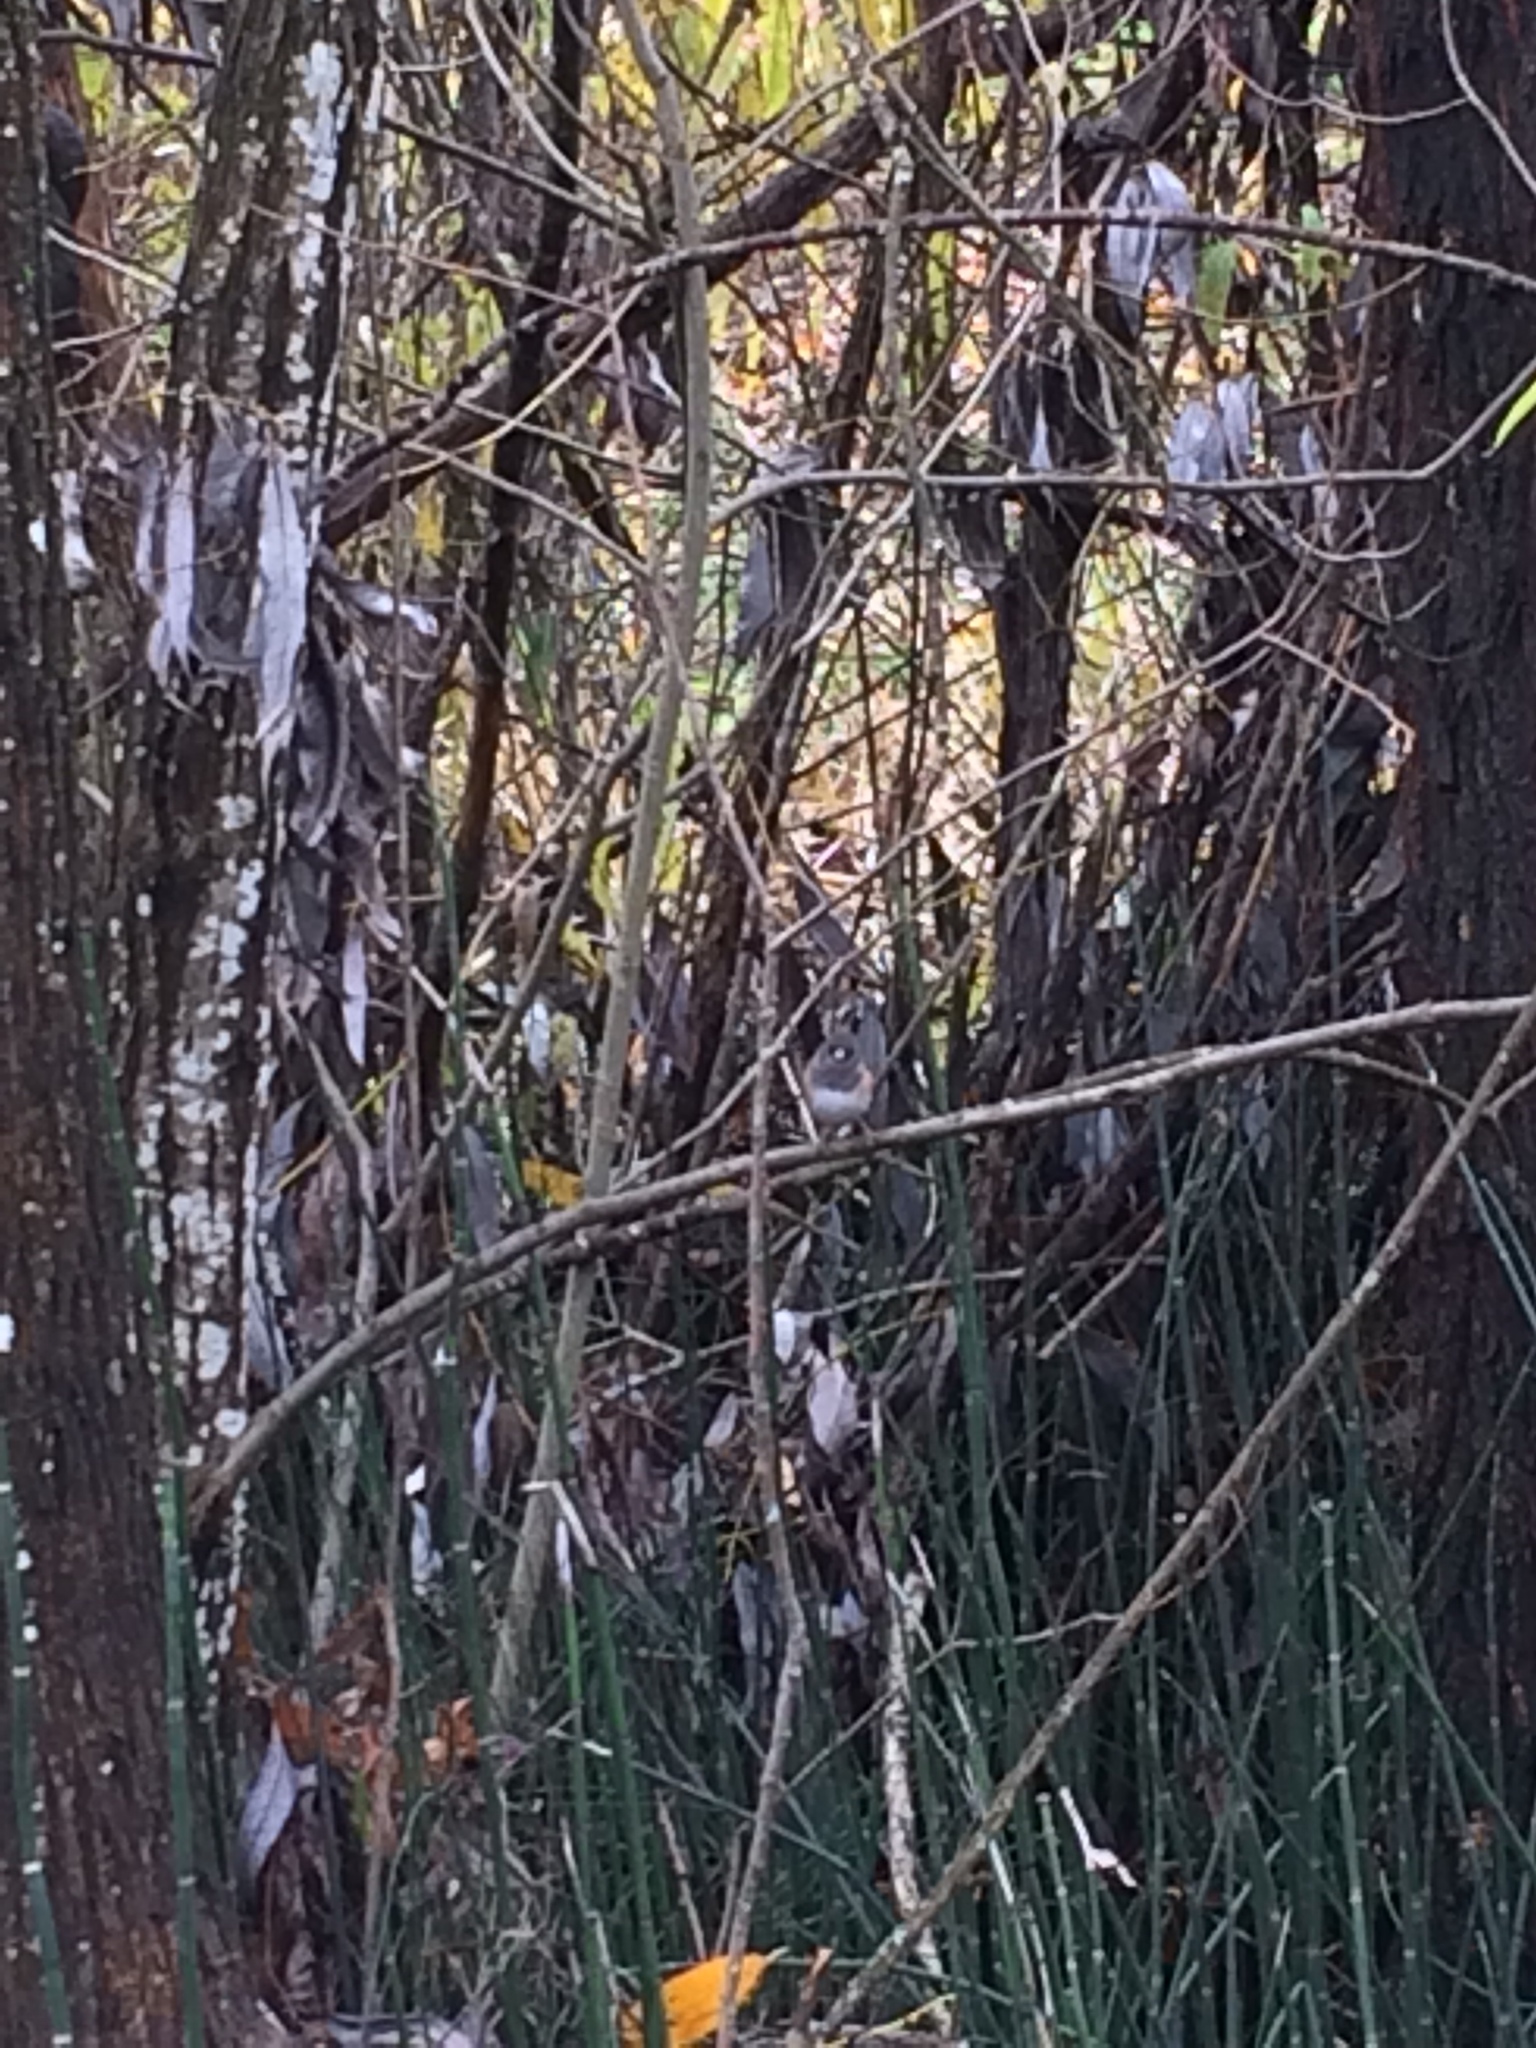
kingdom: Animalia
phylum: Chordata
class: Aves
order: Passeriformes
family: Passerellidae
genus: Junco
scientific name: Junco hyemalis
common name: Dark-eyed junco
